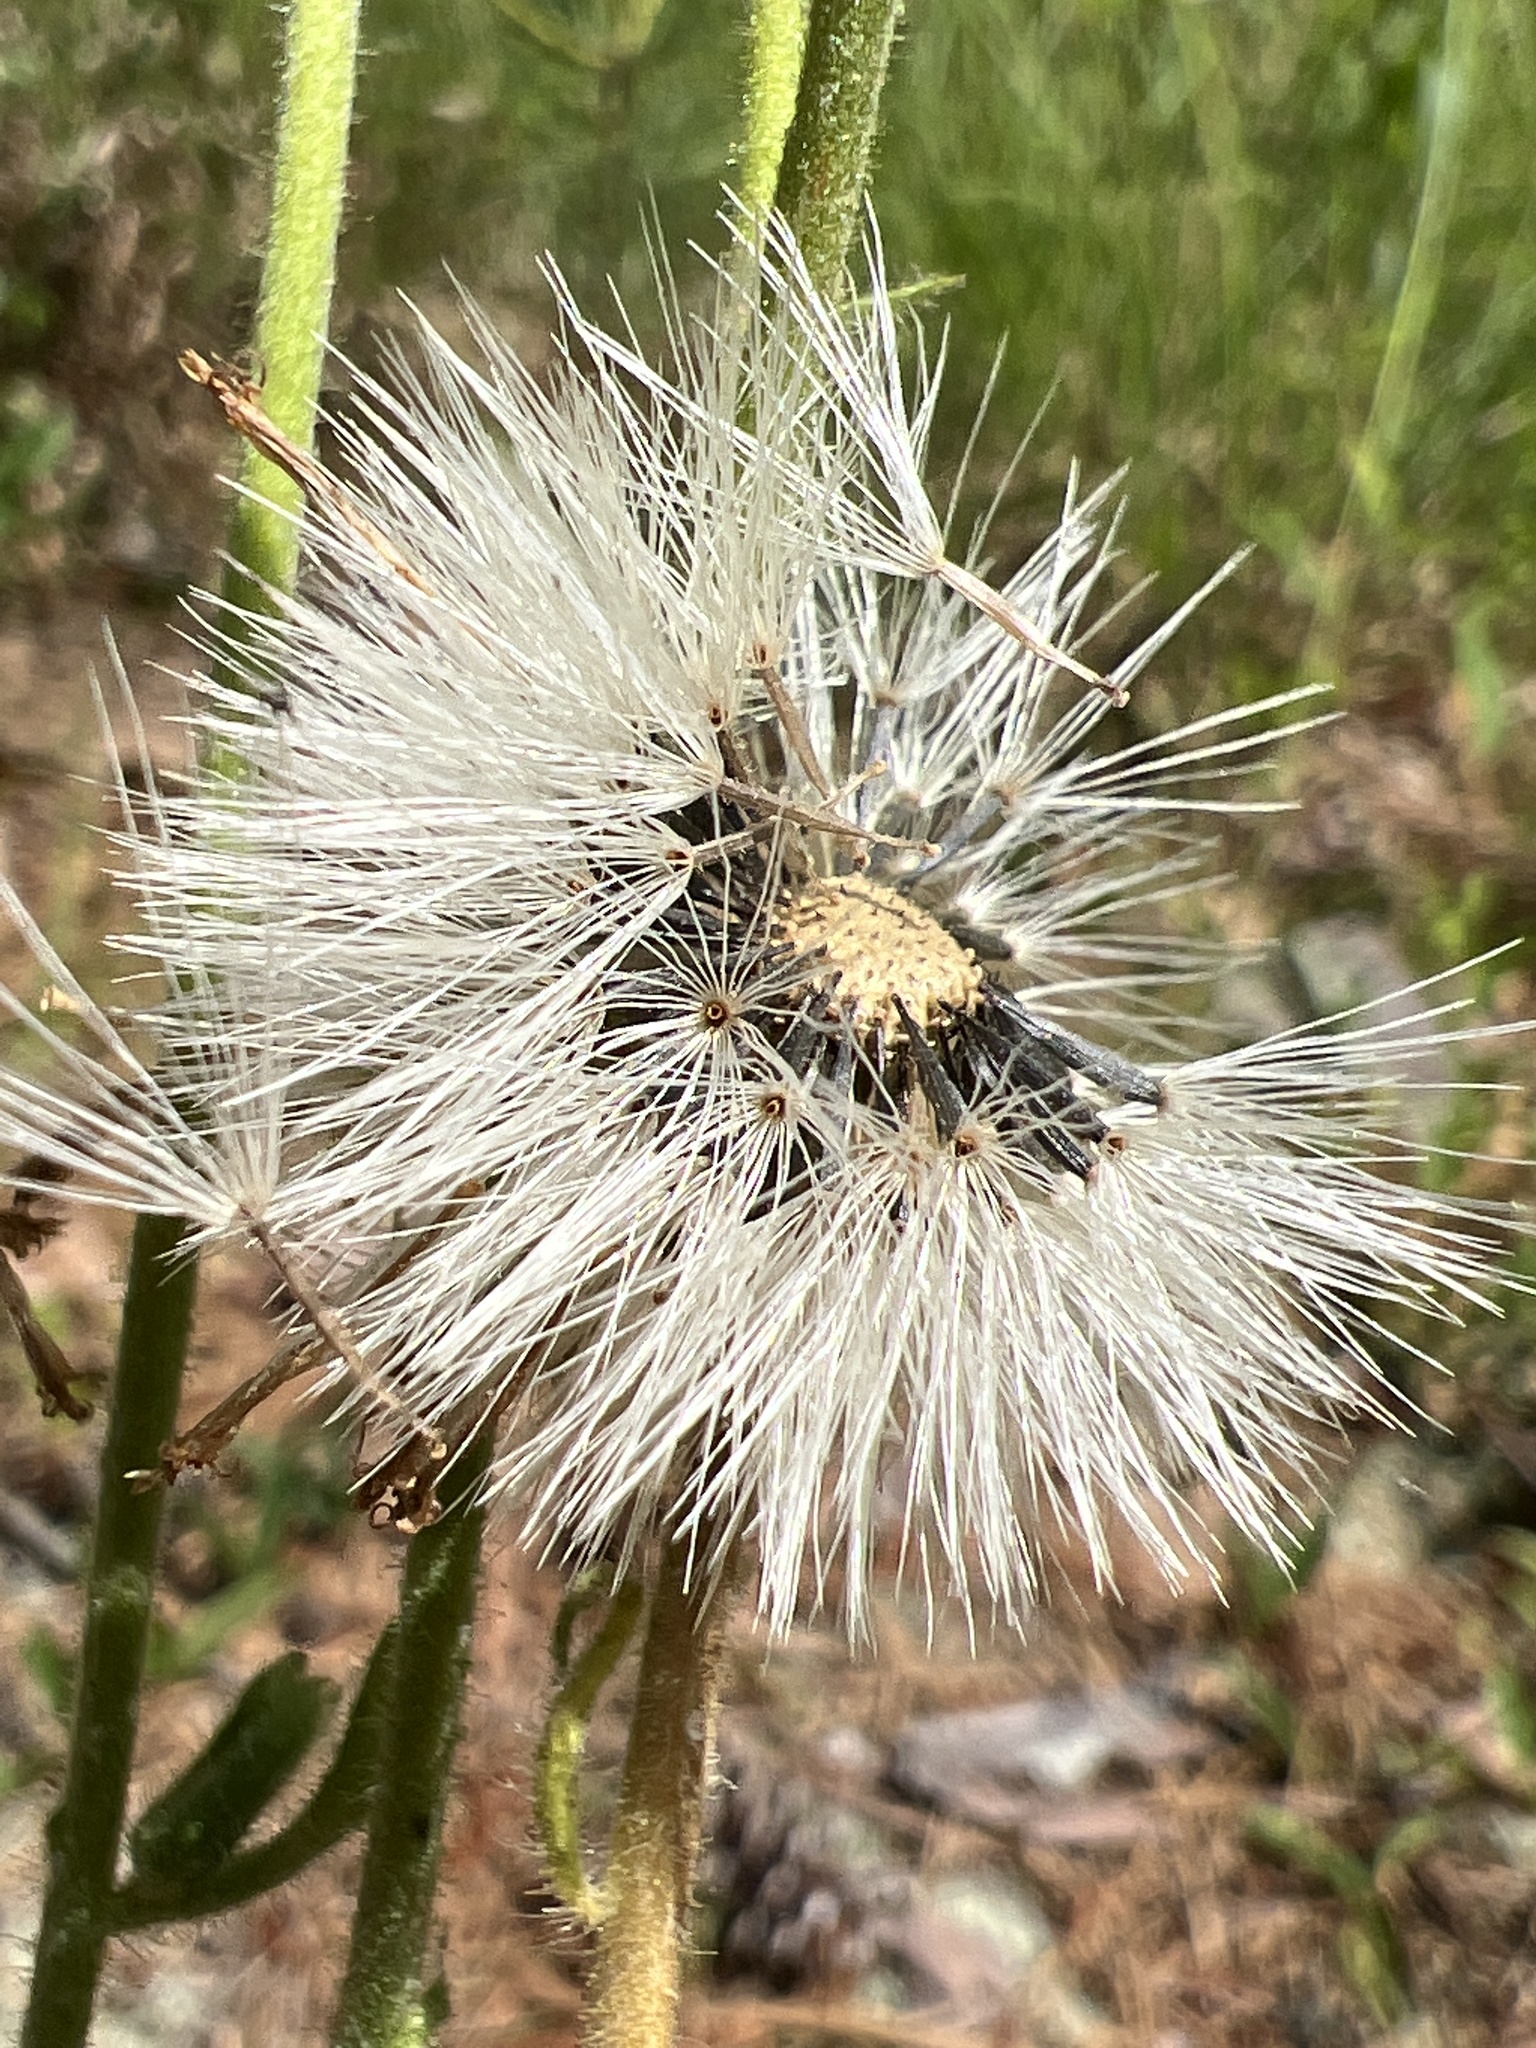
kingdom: Plantae
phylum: Tracheophyta
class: Magnoliopsida
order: Asterales
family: Asteraceae
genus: Arnica
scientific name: Arnica acaulis
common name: Common leopardbane
